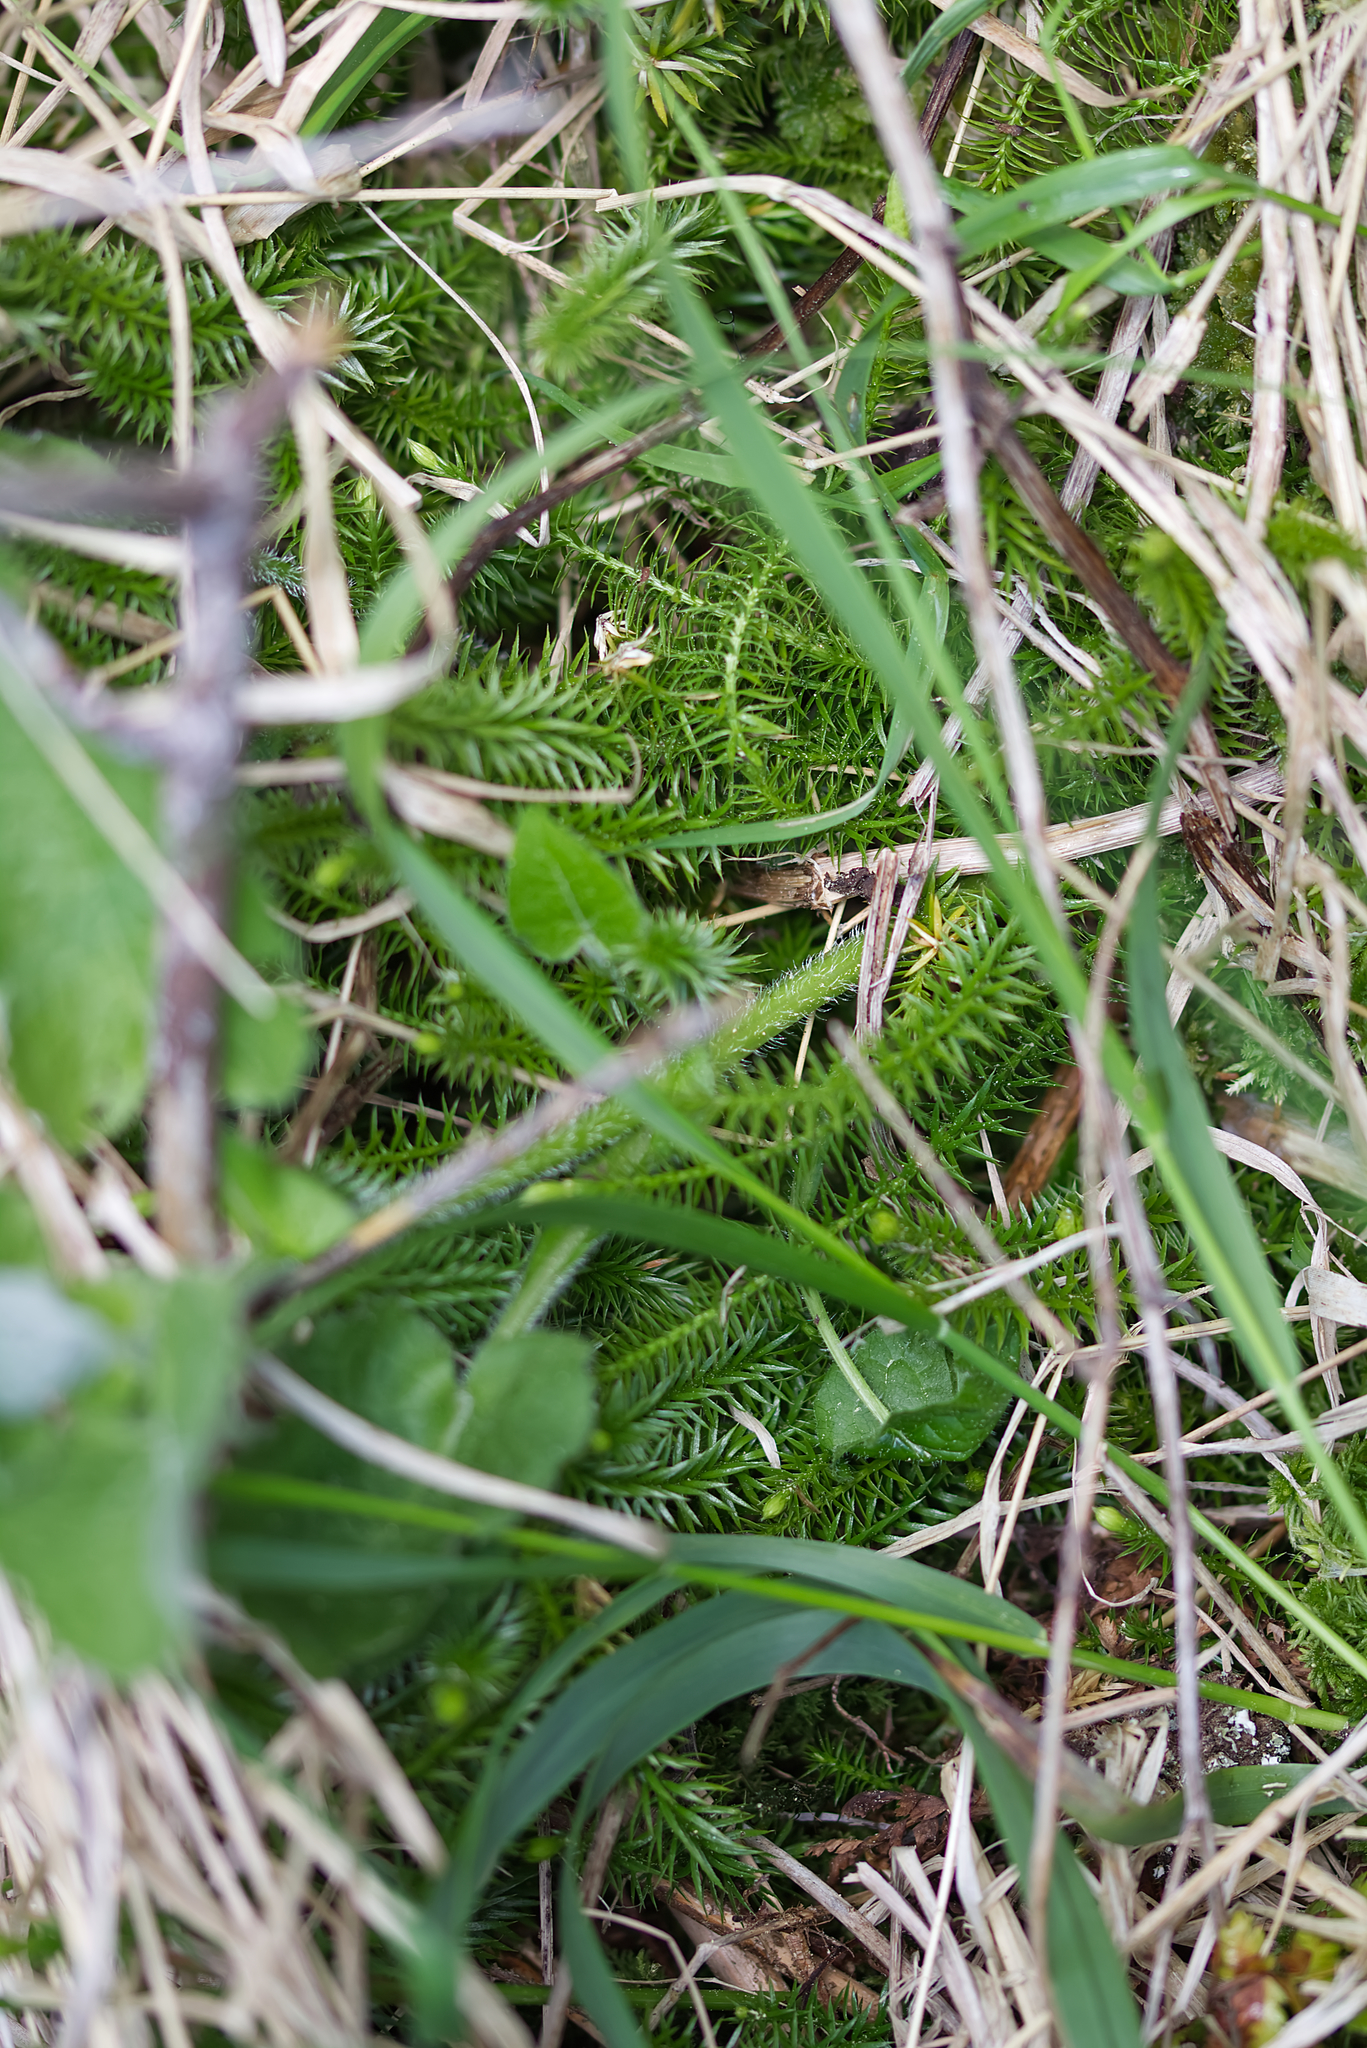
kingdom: Plantae
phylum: Tracheophyta
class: Lycopodiopsida
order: Lycopodiales
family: Lycopodiaceae
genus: Spinulum
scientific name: Spinulum annotinum
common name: Interrupted club-moss
